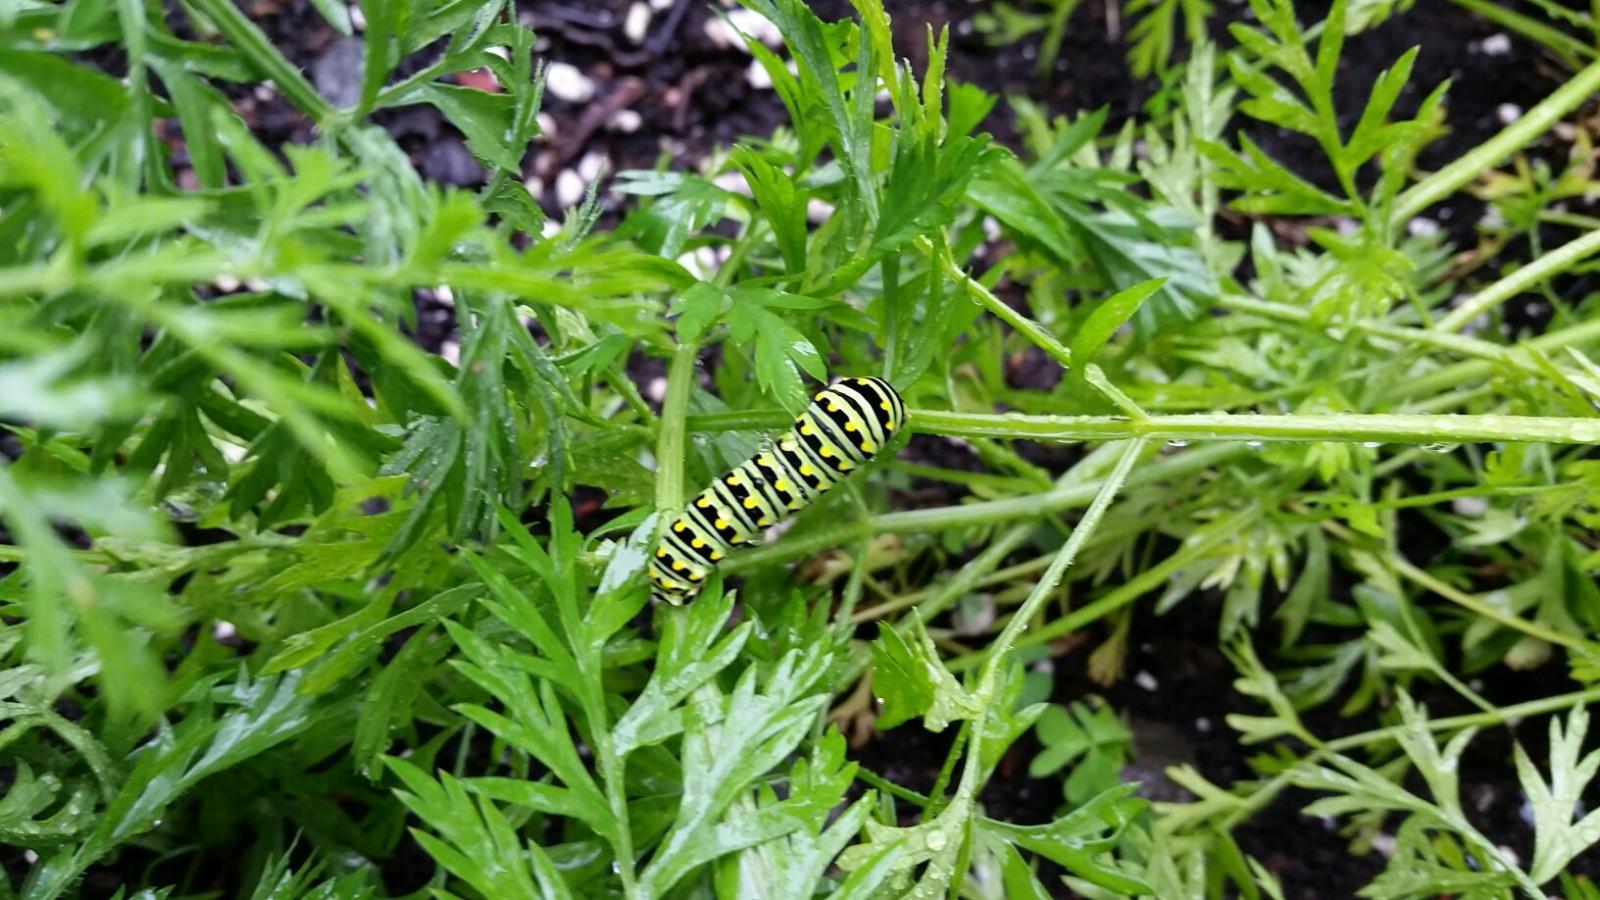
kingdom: Animalia
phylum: Arthropoda
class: Insecta
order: Lepidoptera
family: Papilionidae
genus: Papilio
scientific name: Papilio polyxenes
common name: Black swallowtail
